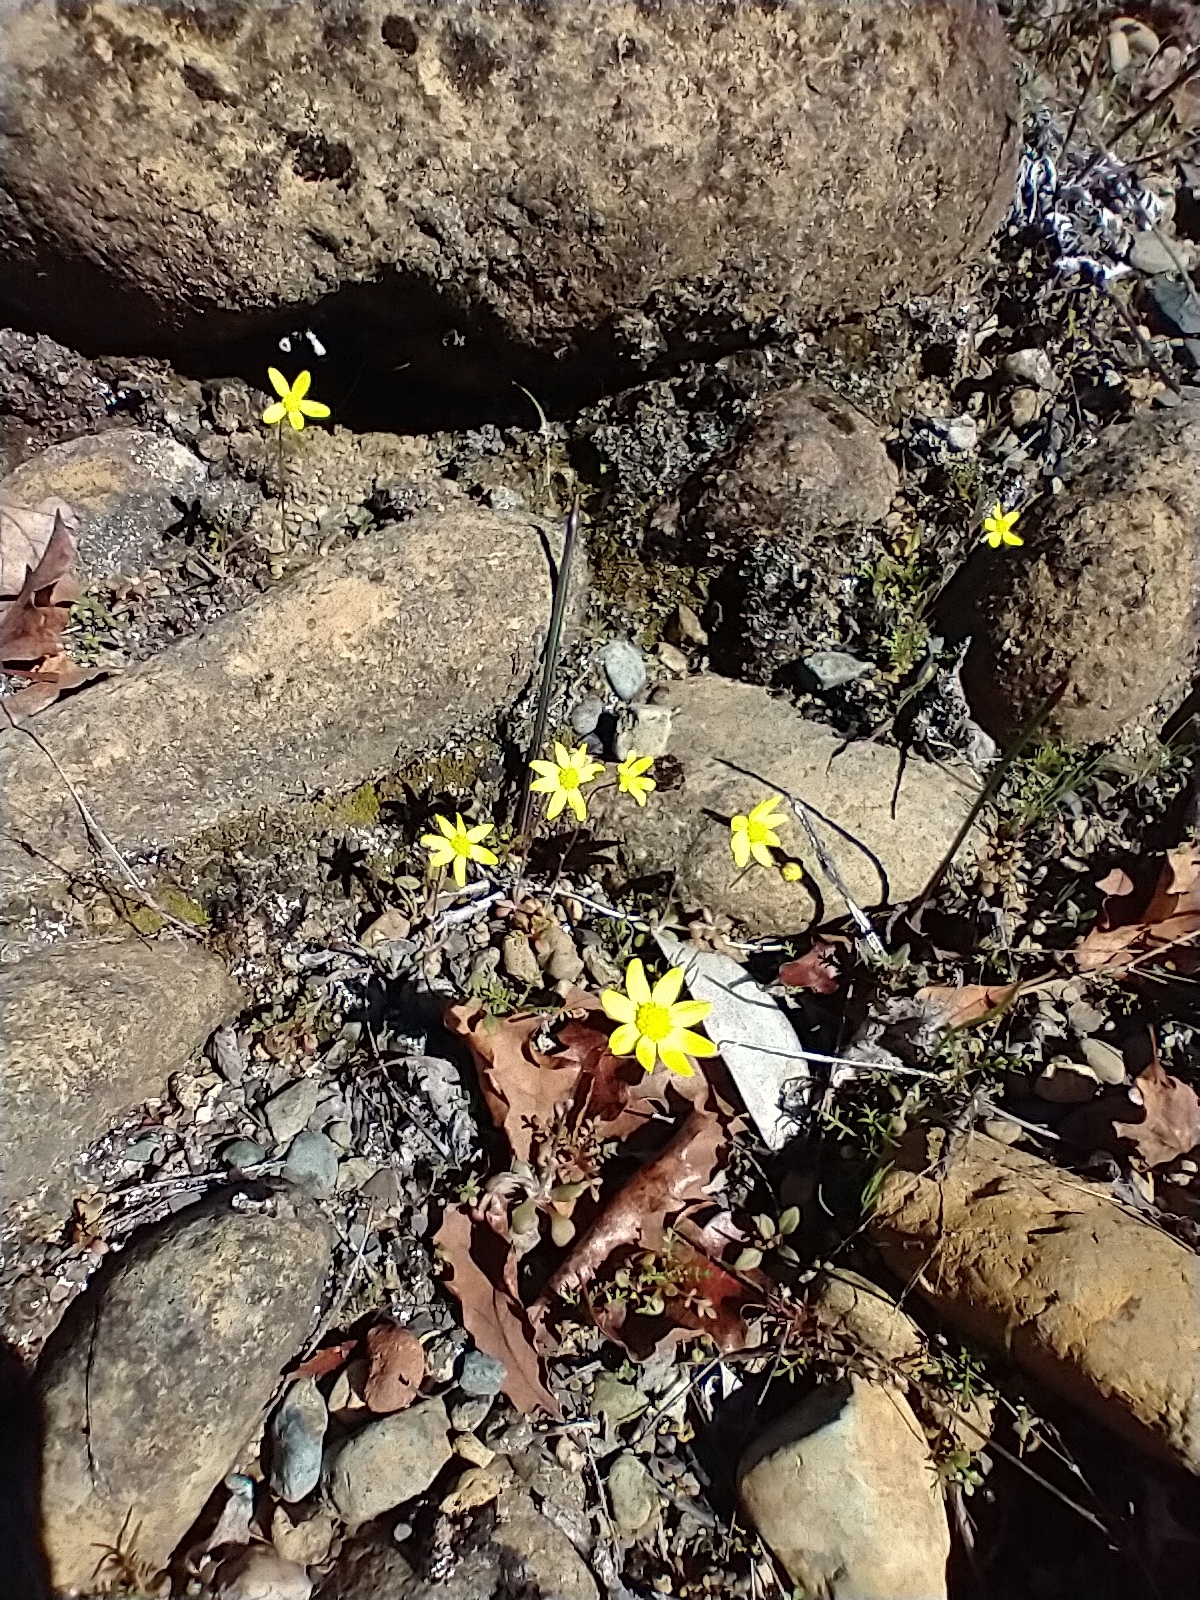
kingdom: Plantae
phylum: Tracheophyta
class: Magnoliopsida
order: Asterales
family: Asteraceae
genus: Crocidium
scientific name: Crocidium multicaule
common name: Common spring gold
